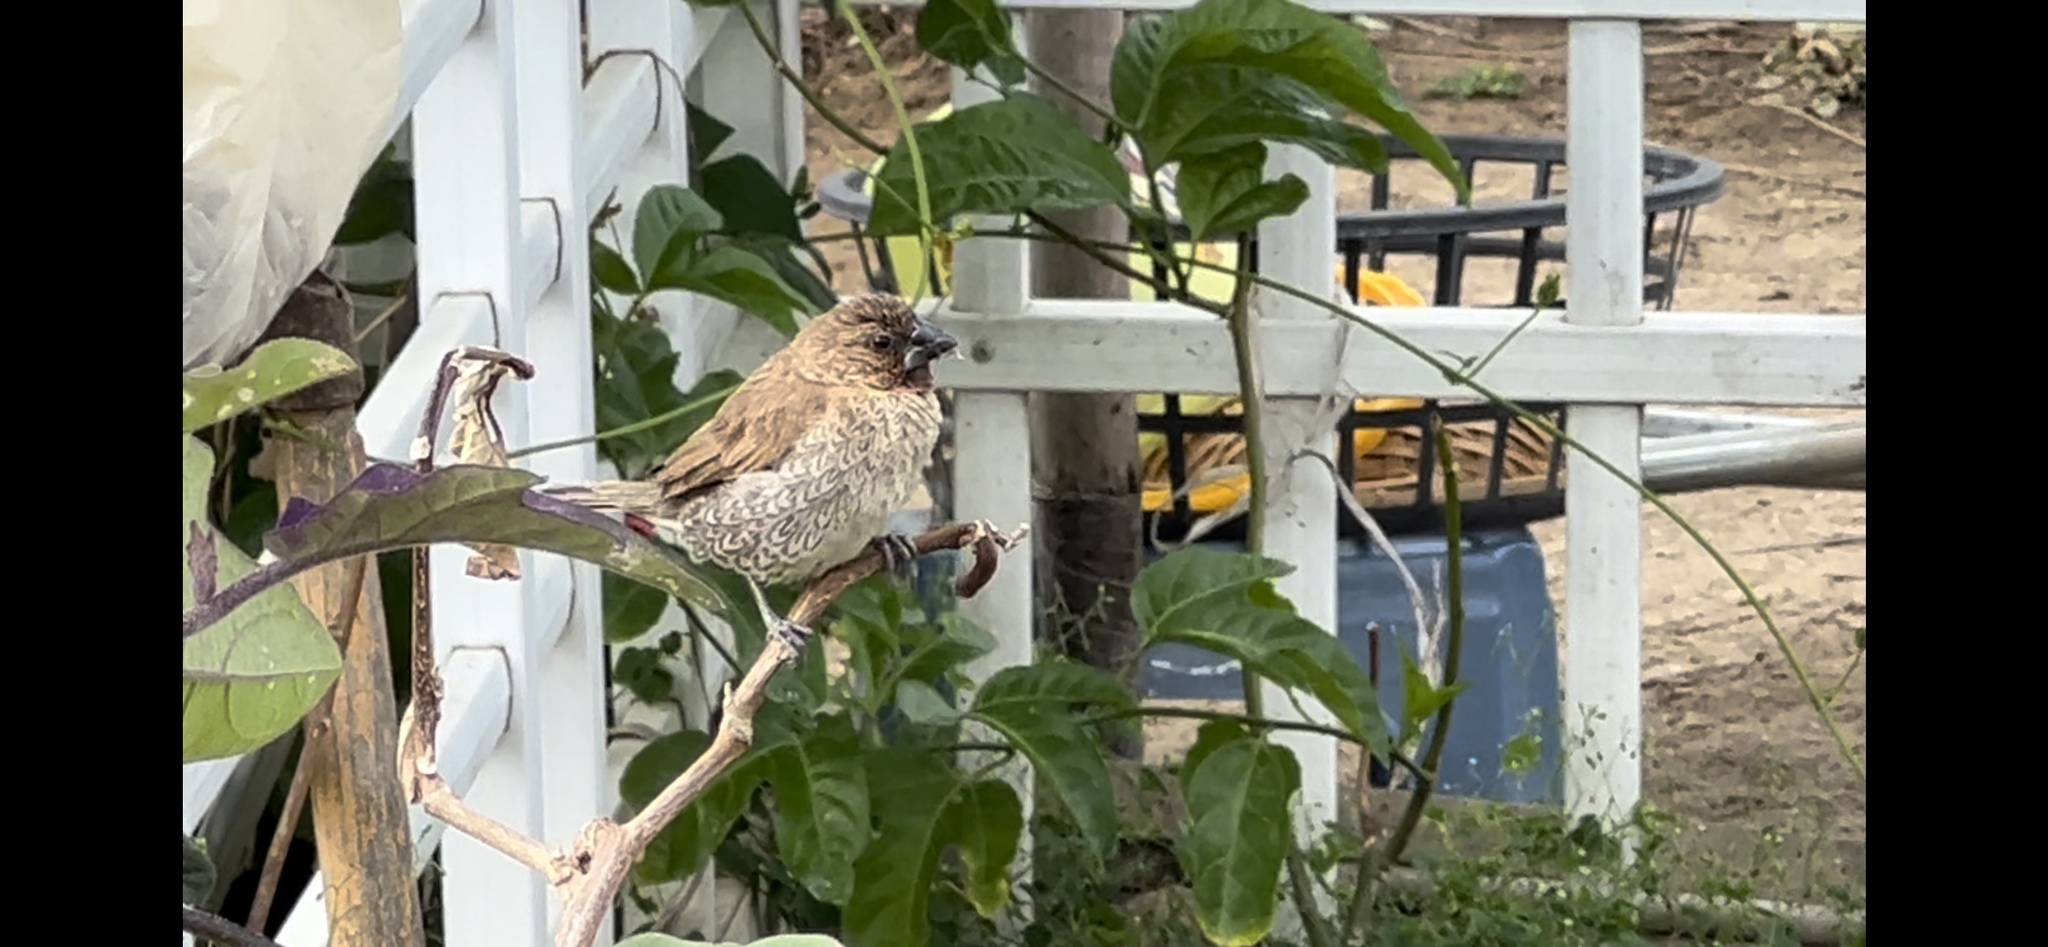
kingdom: Animalia
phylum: Chordata
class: Aves
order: Passeriformes
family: Estrildidae
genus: Lonchura
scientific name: Lonchura punctulata
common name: Scaly-breasted munia
